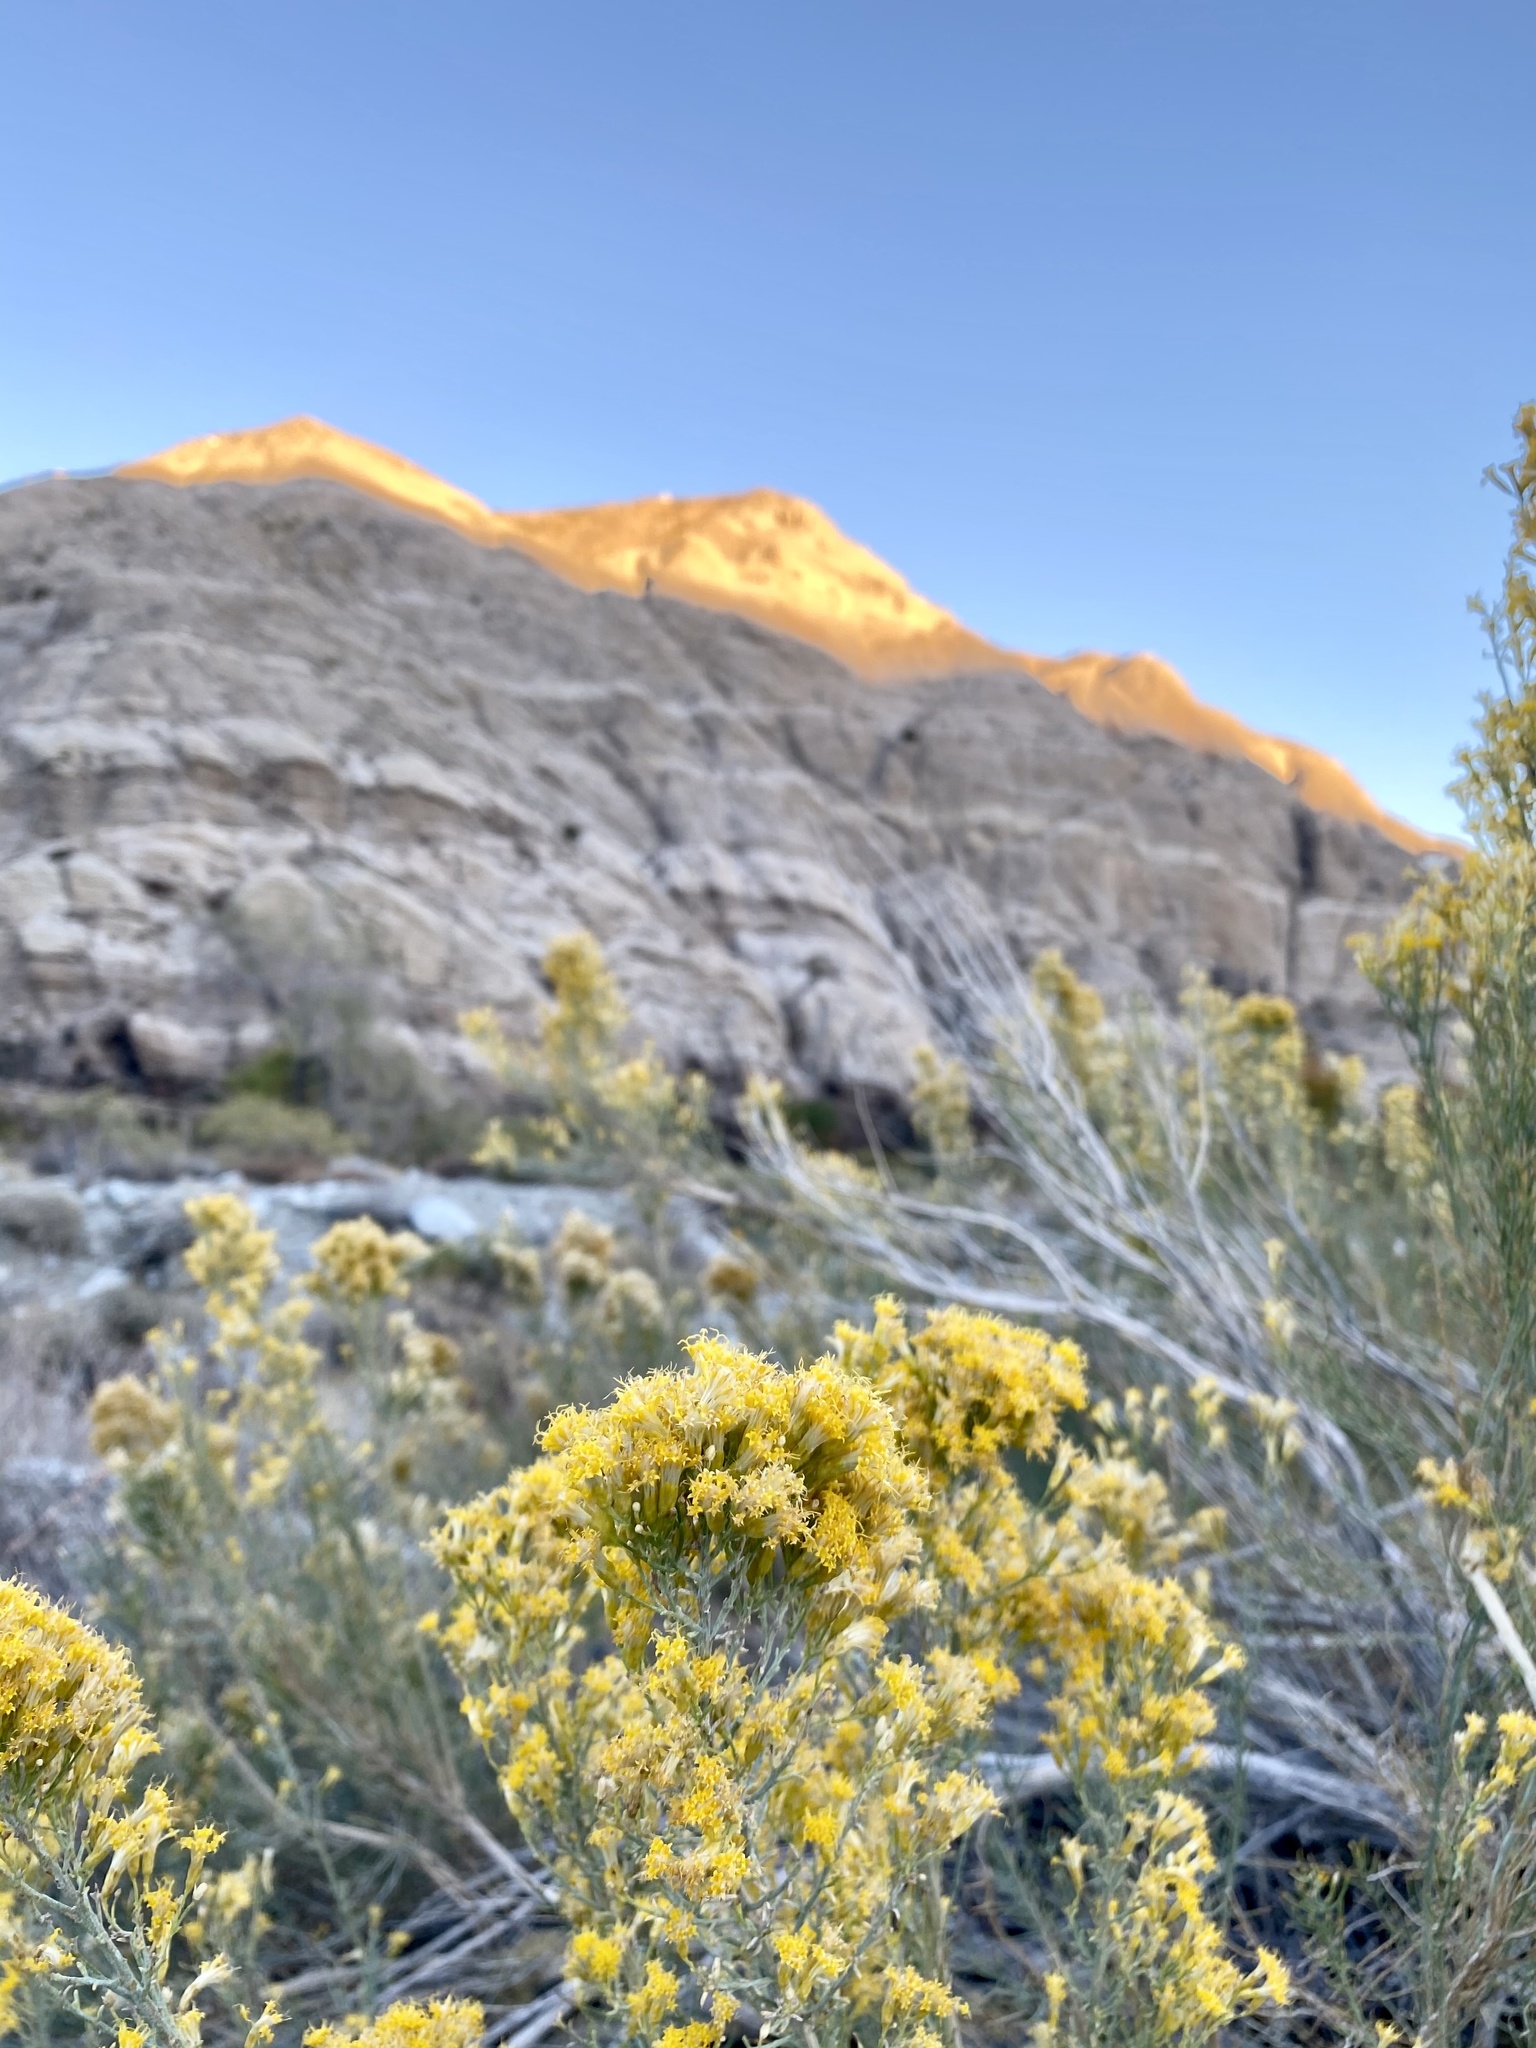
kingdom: Plantae
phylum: Tracheophyta
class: Magnoliopsida
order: Asterales
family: Asteraceae
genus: Ericameria
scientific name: Ericameria paniculata
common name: Punctate rabbitbrush
